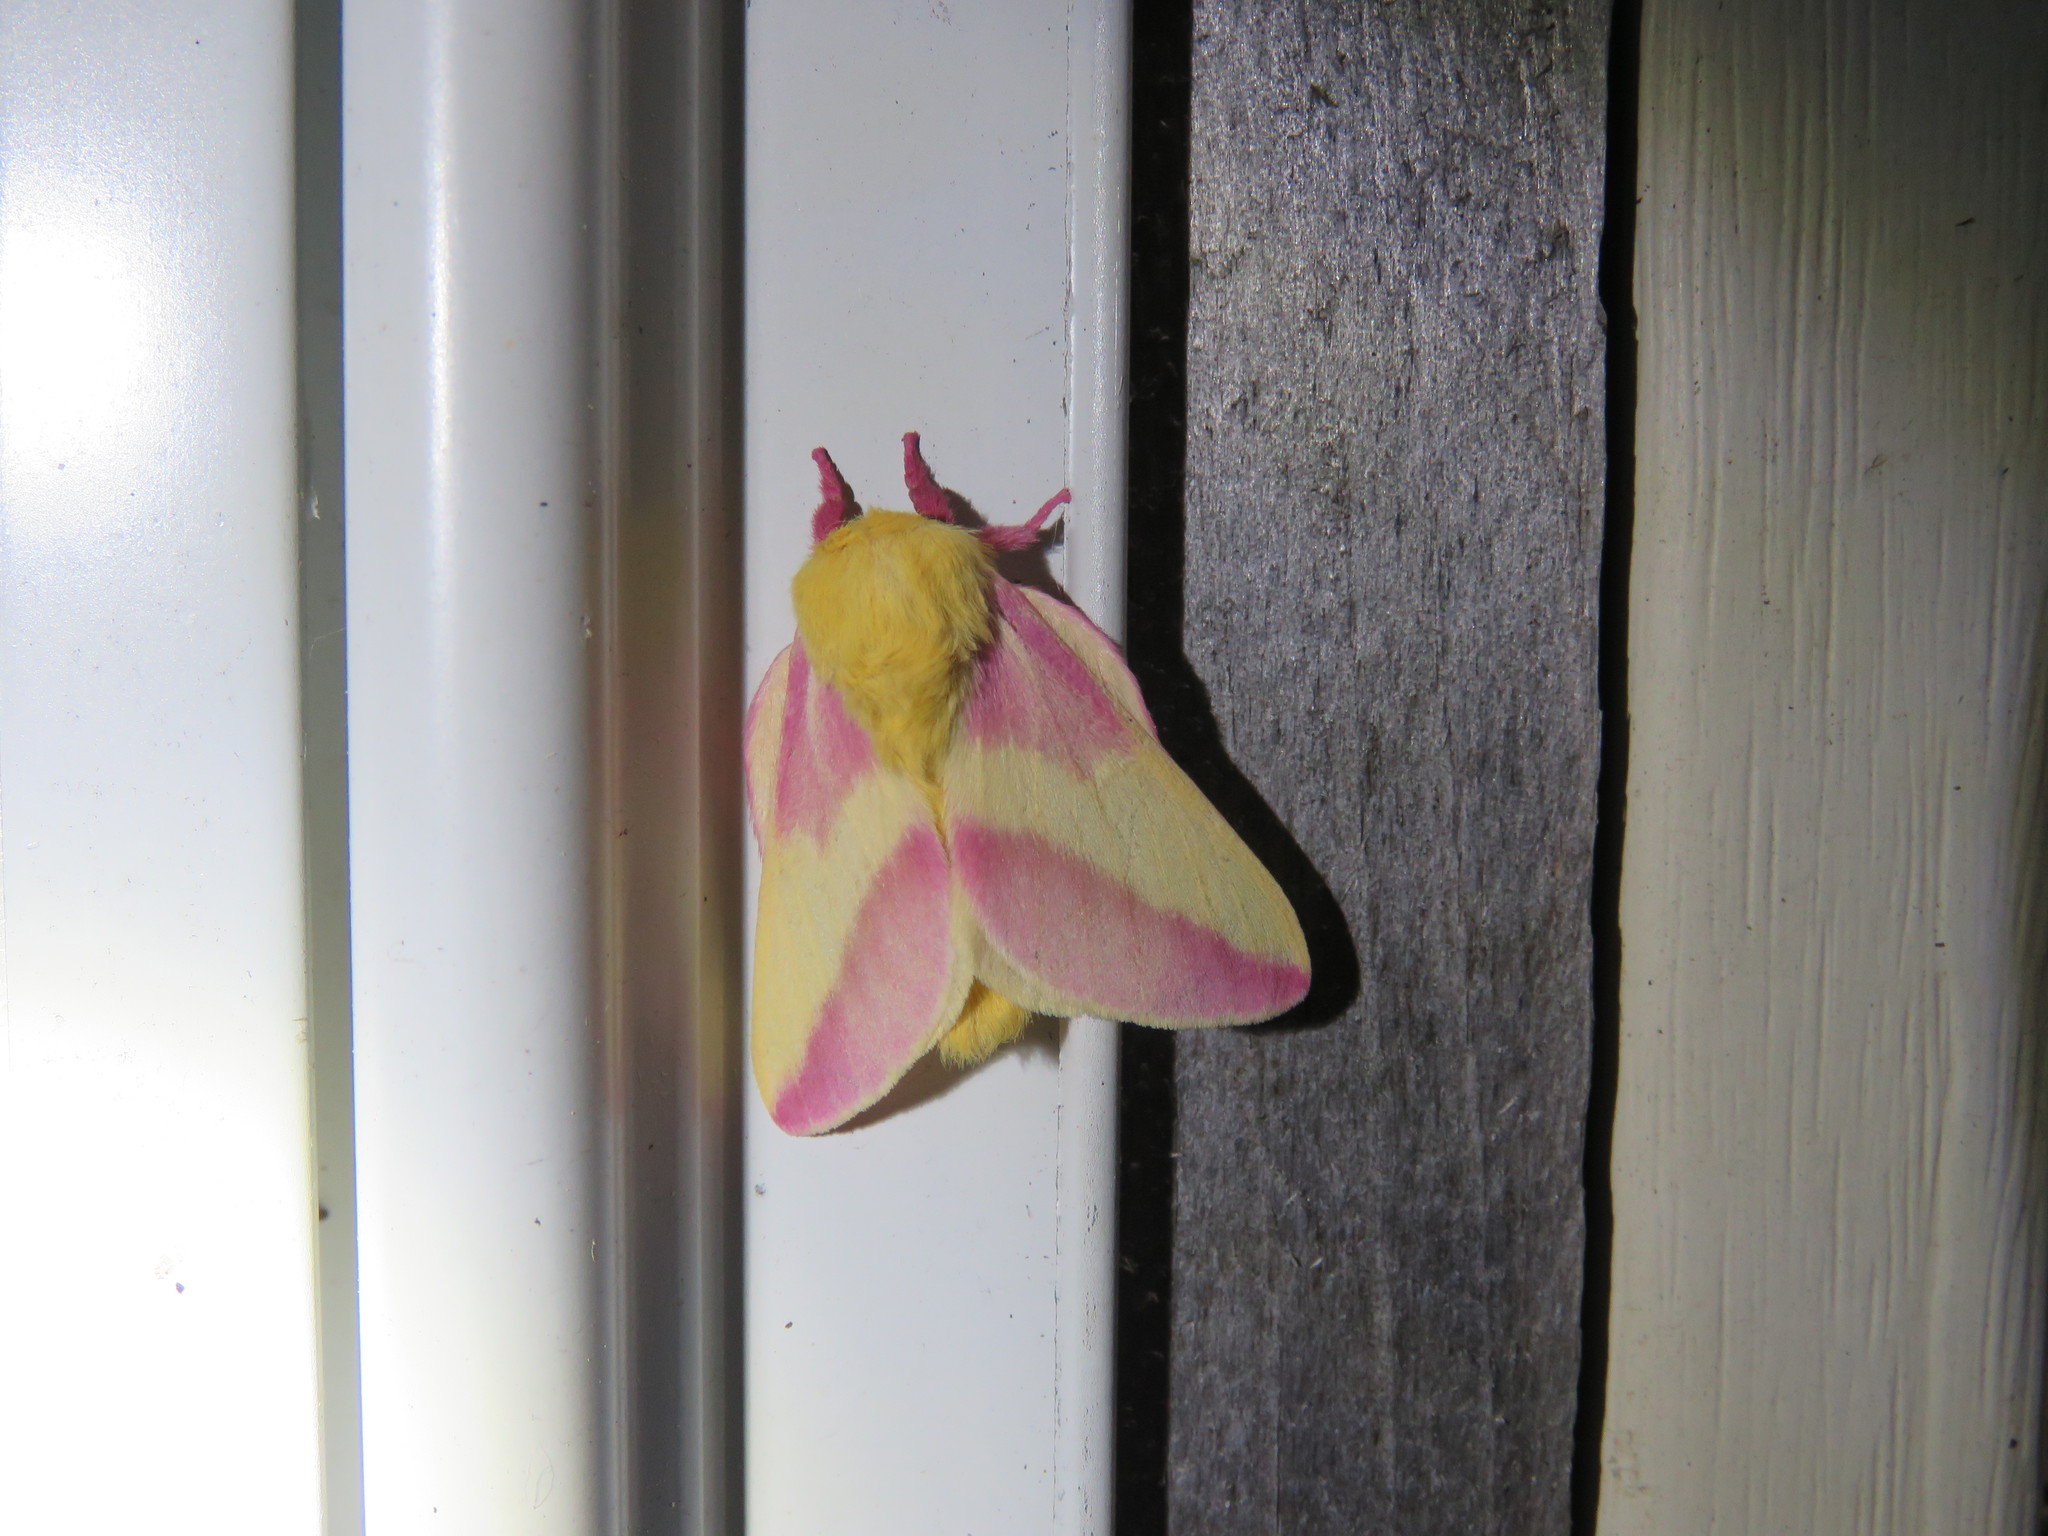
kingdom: Animalia
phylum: Arthropoda
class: Insecta
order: Lepidoptera
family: Saturniidae
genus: Dryocampa
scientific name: Dryocampa rubicunda
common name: Rosy maple moth
